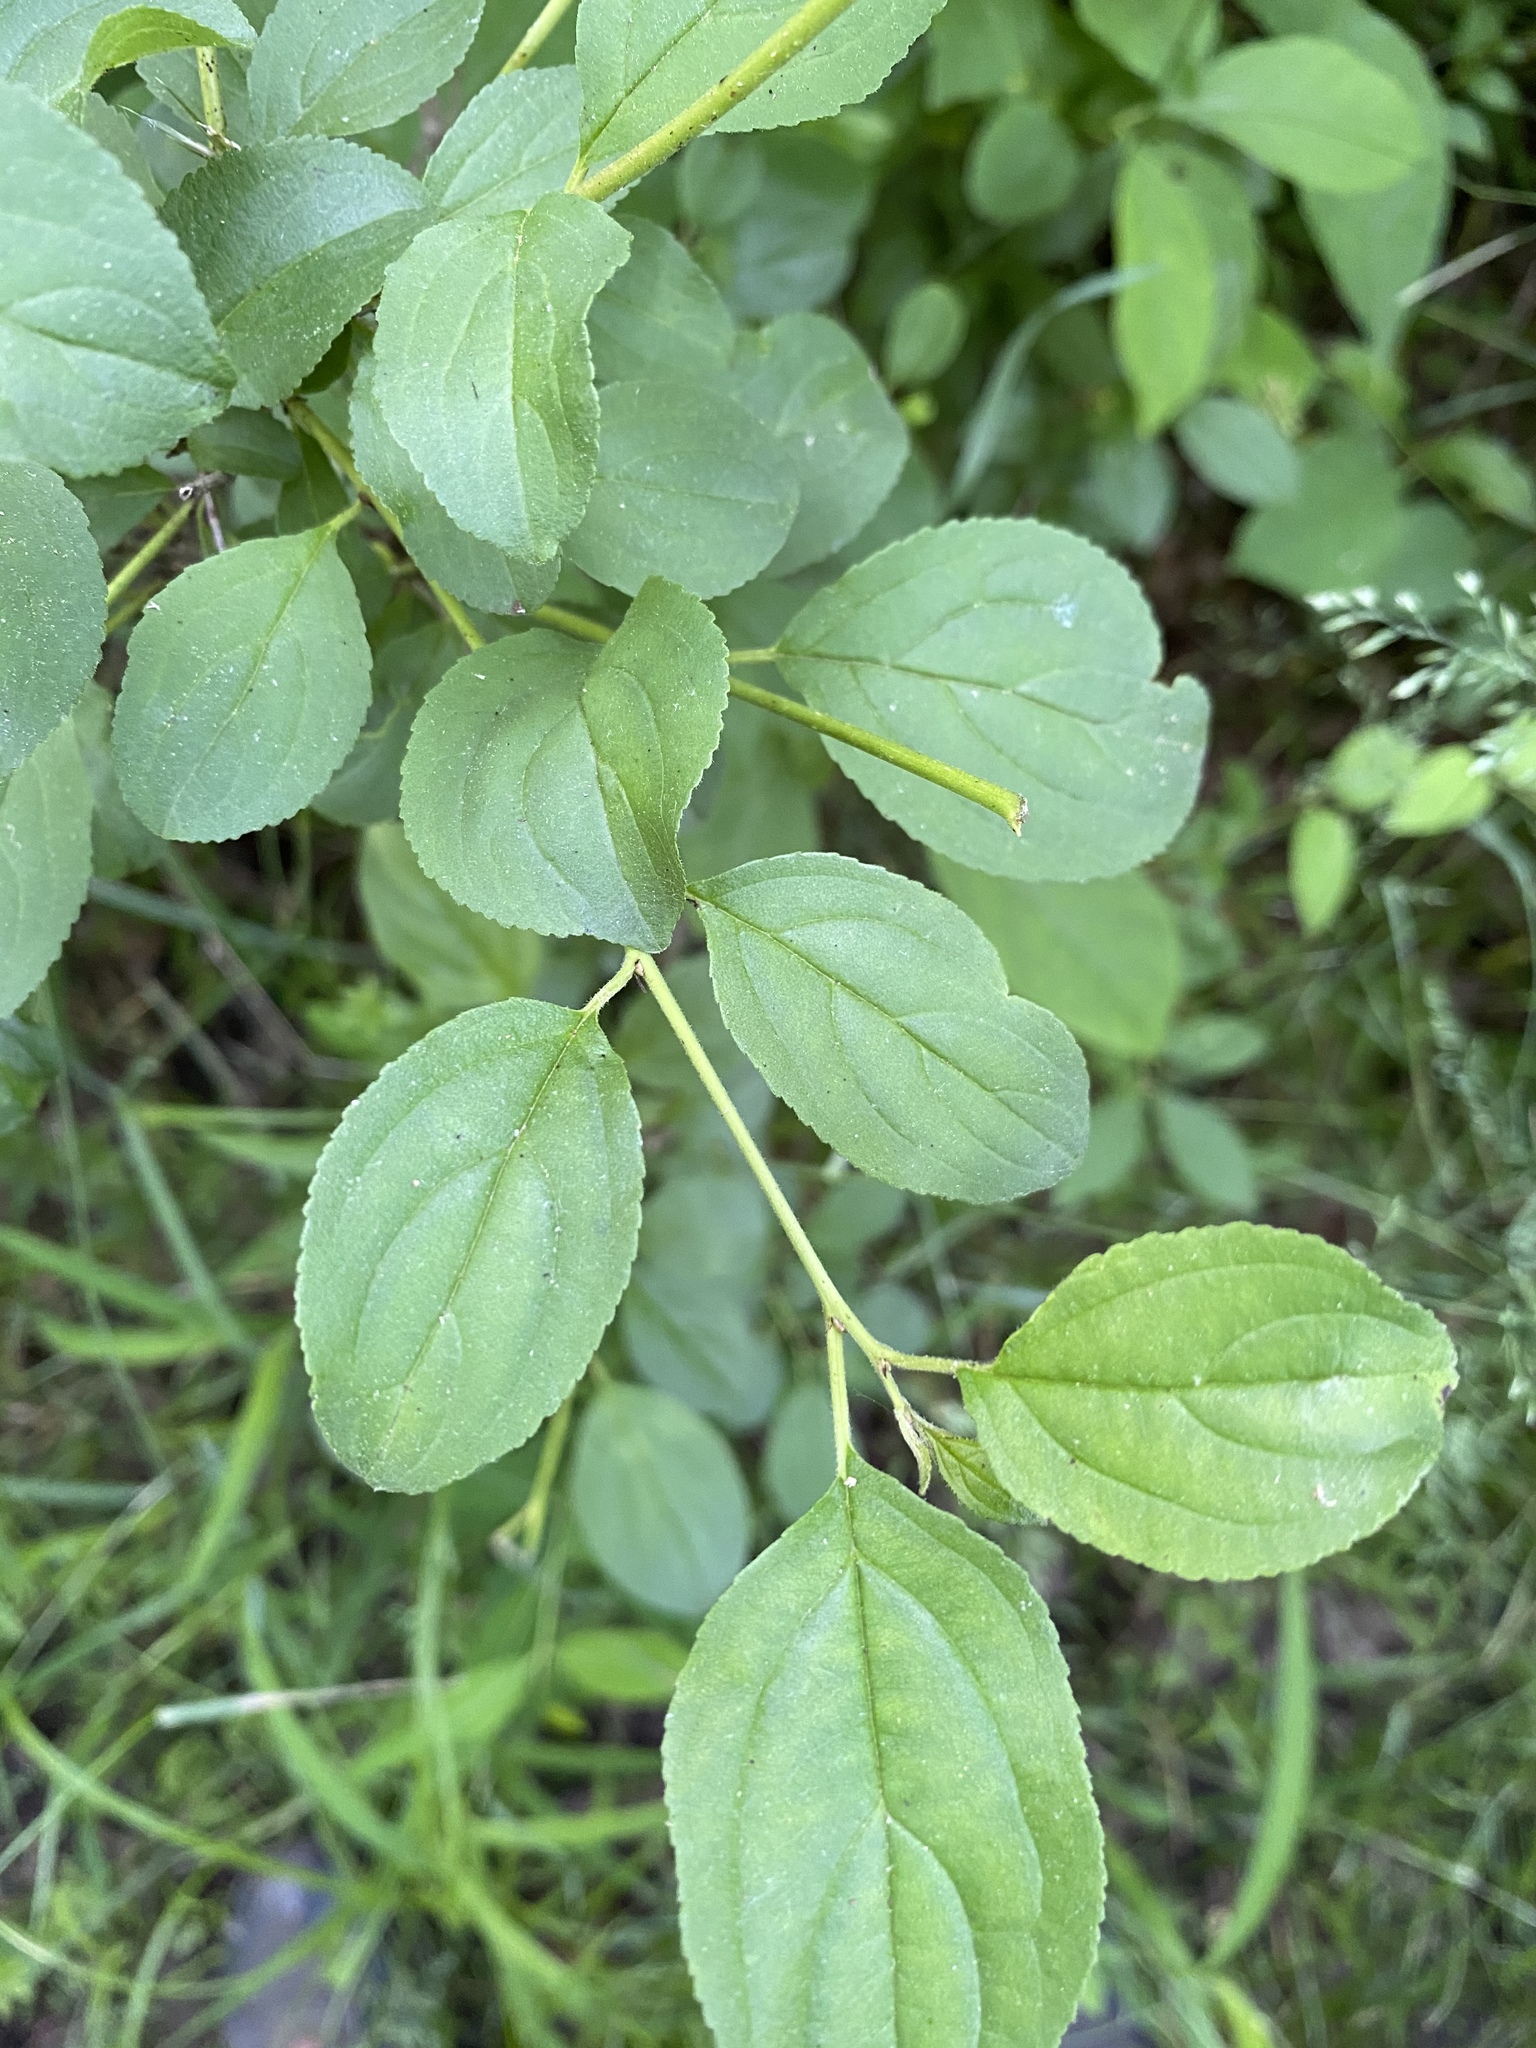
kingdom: Plantae
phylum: Tracheophyta
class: Magnoliopsida
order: Rosales
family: Rhamnaceae
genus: Rhamnus
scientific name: Rhamnus cathartica
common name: Common buckthorn
